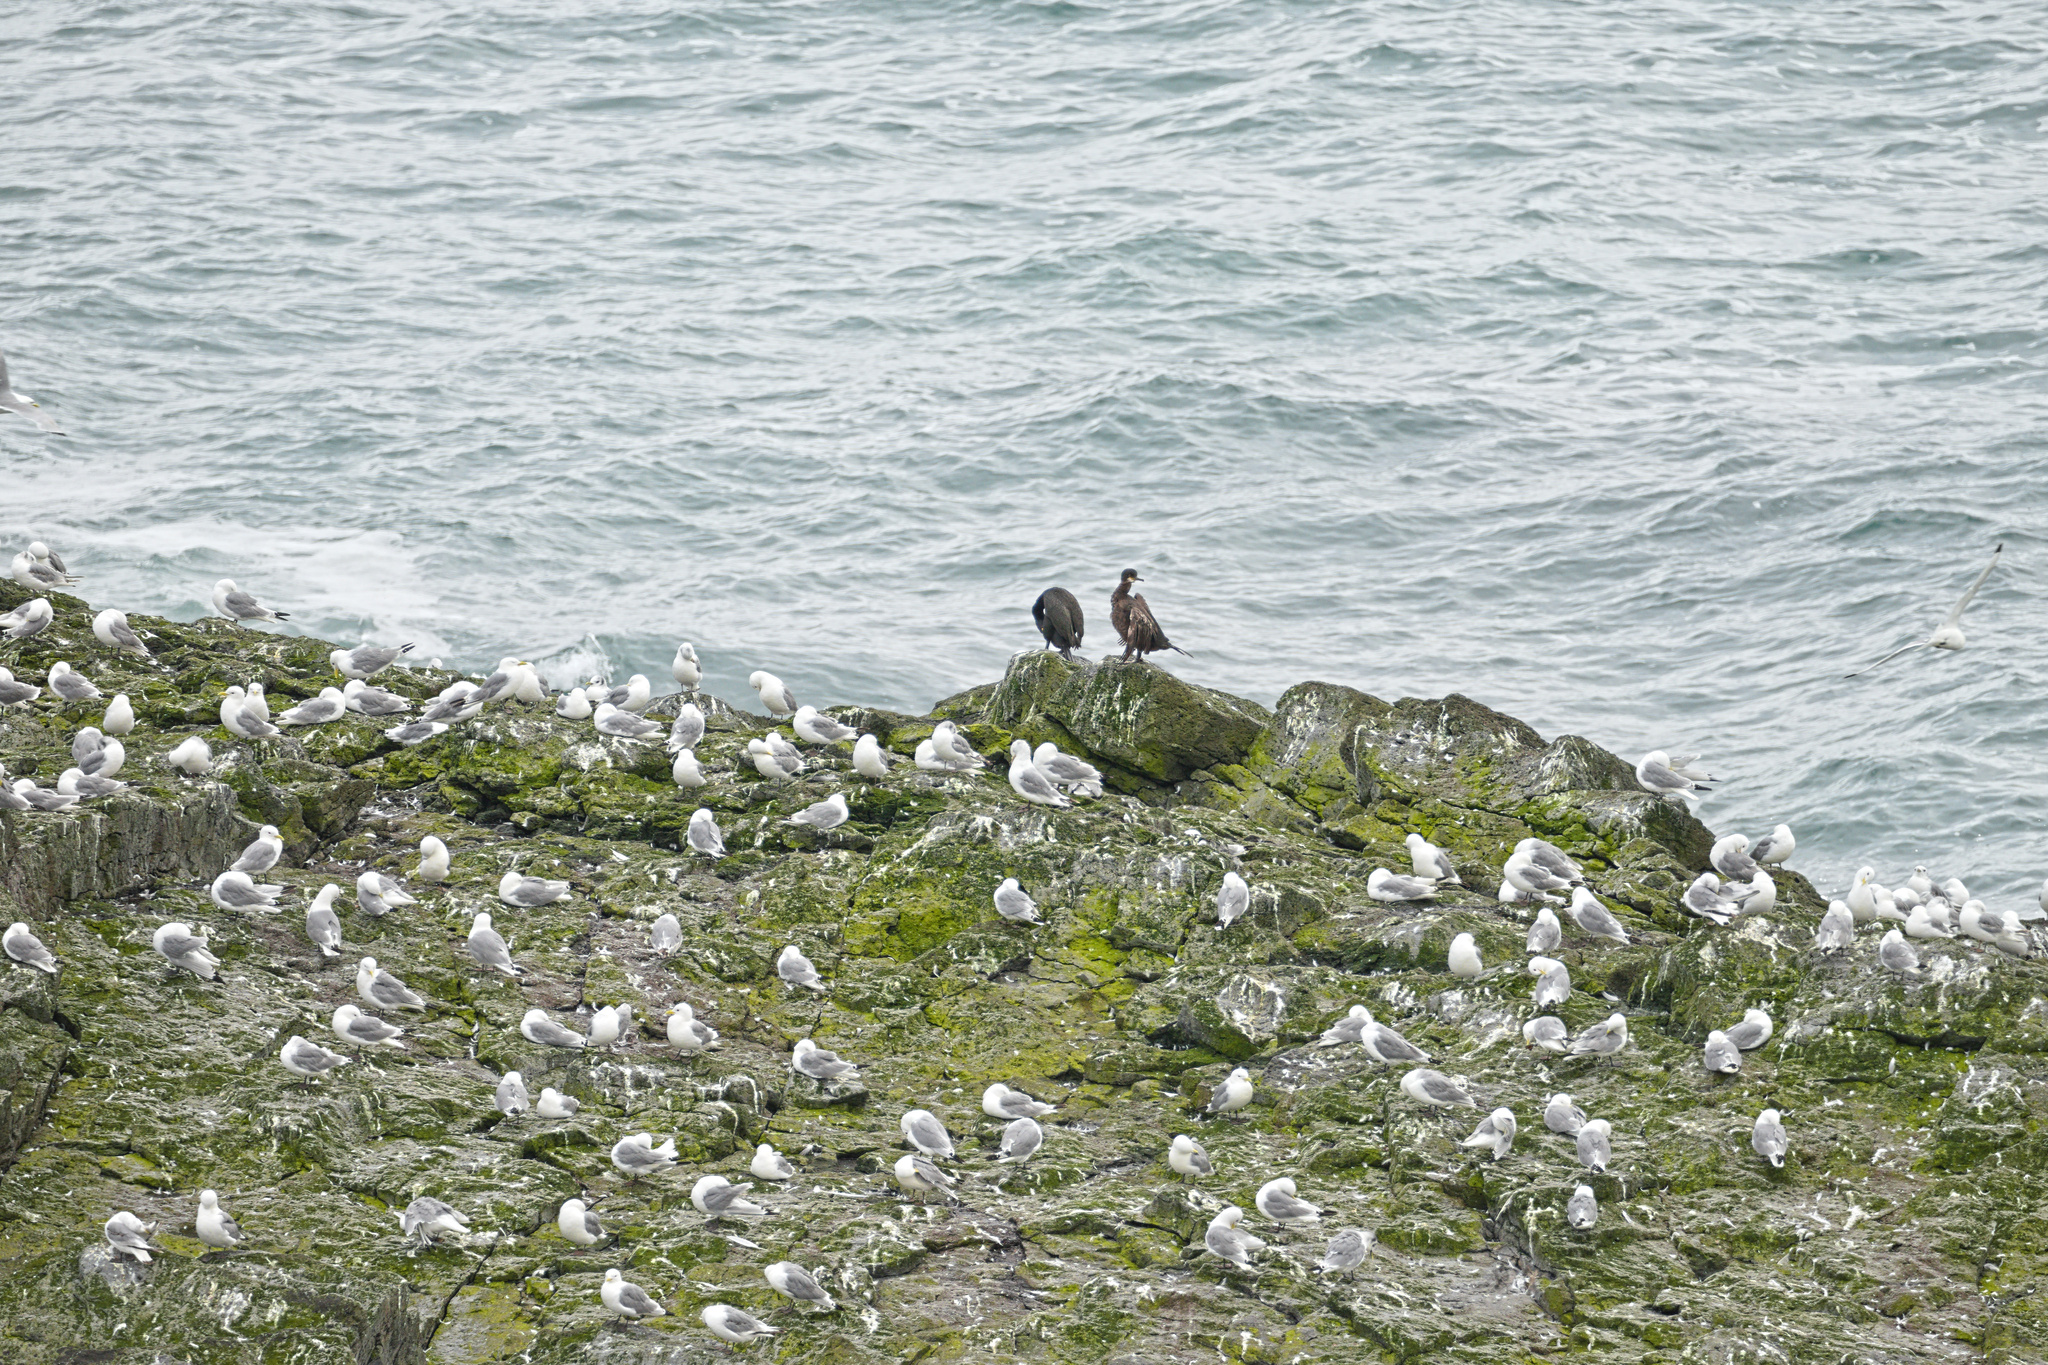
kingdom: Animalia
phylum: Chordata
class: Aves
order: Suliformes
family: Phalacrocoracidae
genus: Phalacrocorax
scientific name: Phalacrocorax aristotelis
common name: European shag
